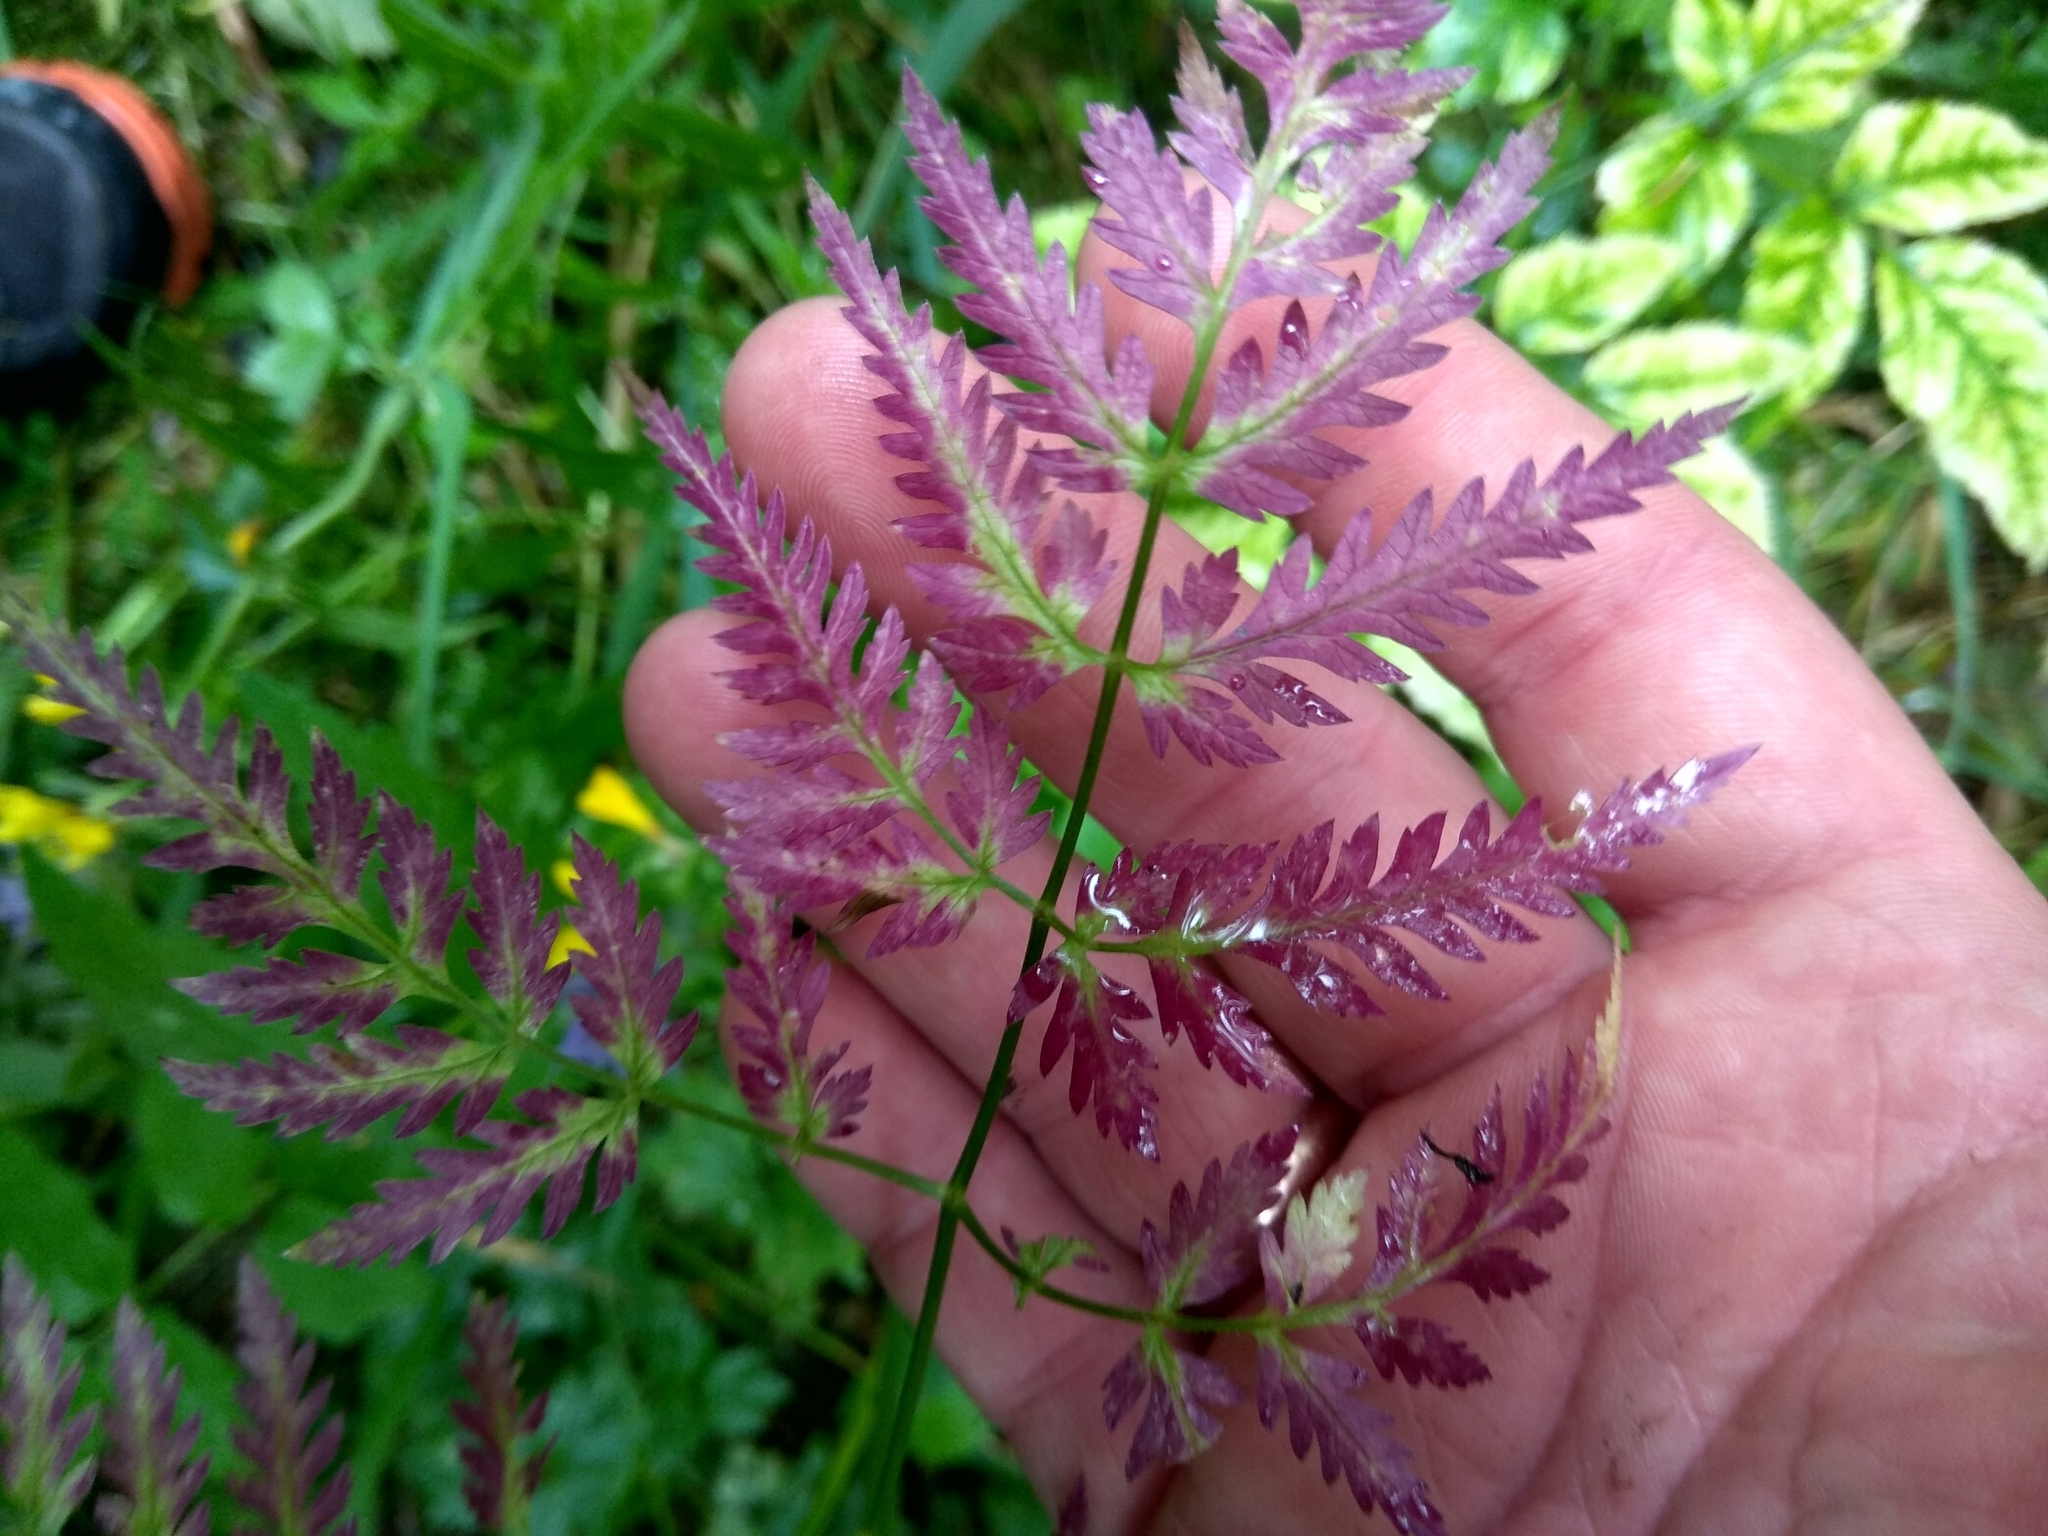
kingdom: Plantae
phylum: Tracheophyta
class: Magnoliopsida
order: Apiales
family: Apiaceae
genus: Anthriscus
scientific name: Anthriscus sylvestris
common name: Cow parsley
